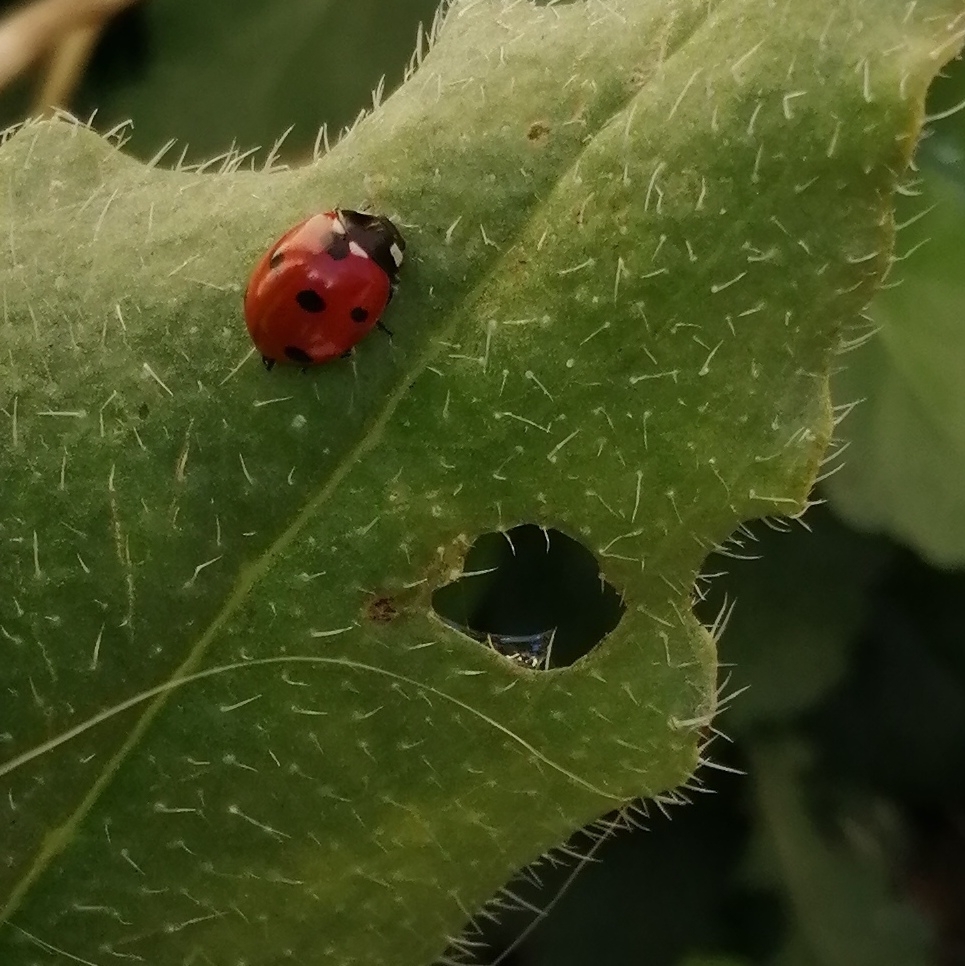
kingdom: Animalia
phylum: Arthropoda
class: Insecta
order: Coleoptera
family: Coccinellidae
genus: Coccinella
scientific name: Coccinella septempunctata
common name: Sevenspotted lady beetle
